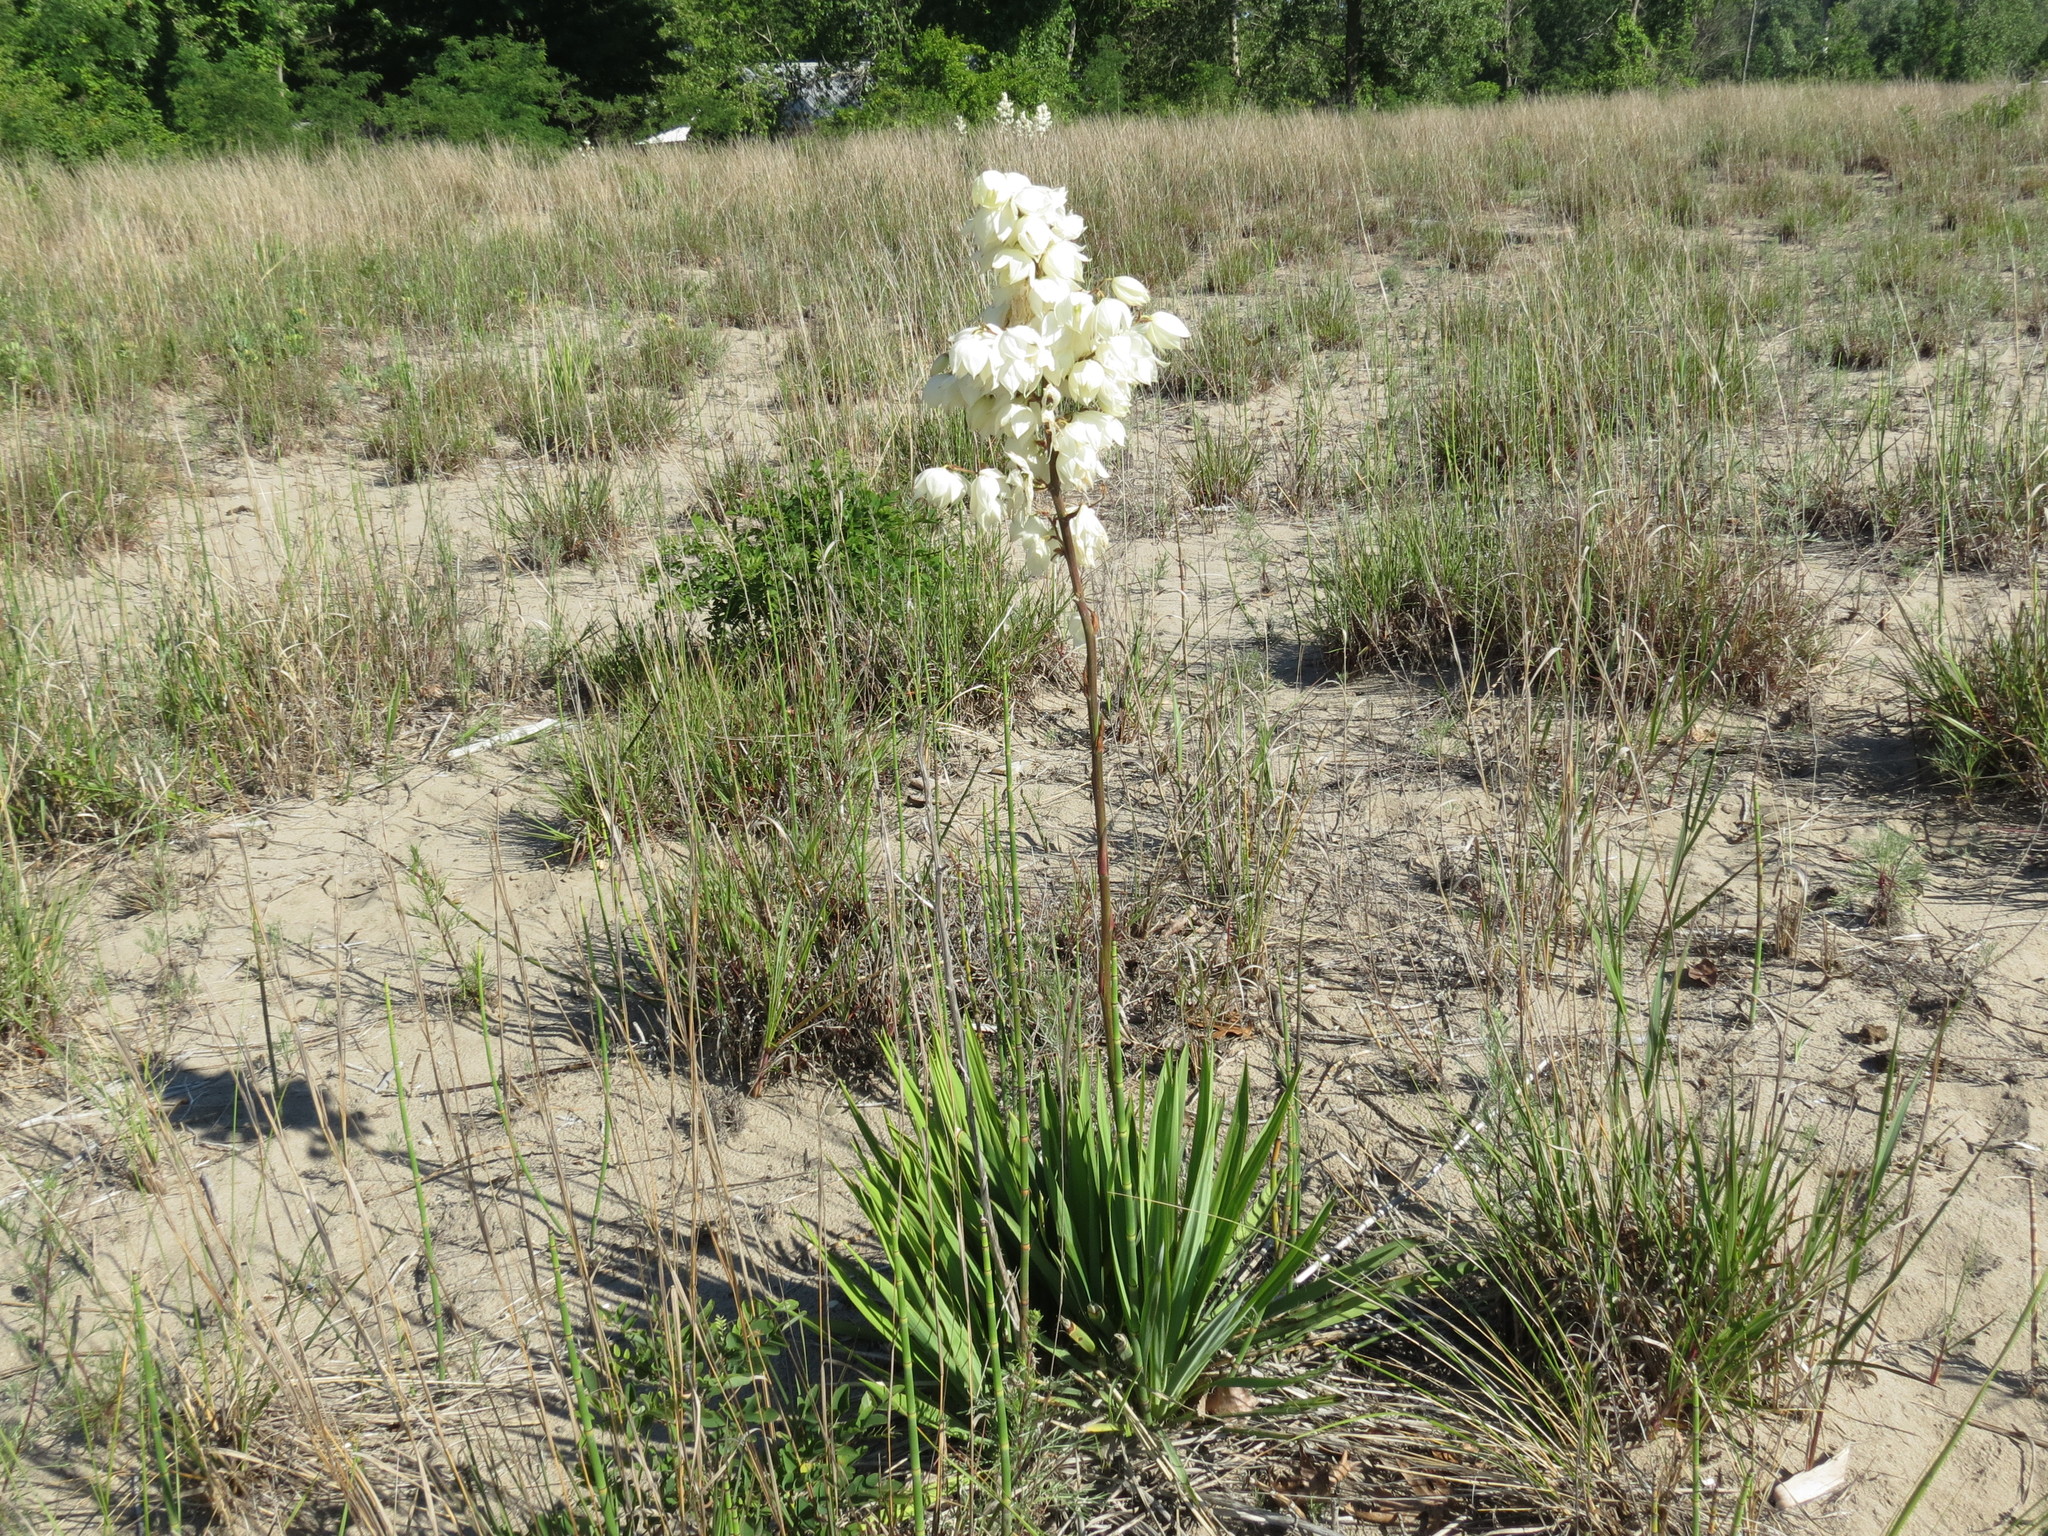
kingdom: Plantae
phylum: Tracheophyta
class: Liliopsida
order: Asparagales
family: Asparagaceae
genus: Yucca
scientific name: Yucca flaccida
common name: Adam's-needle
